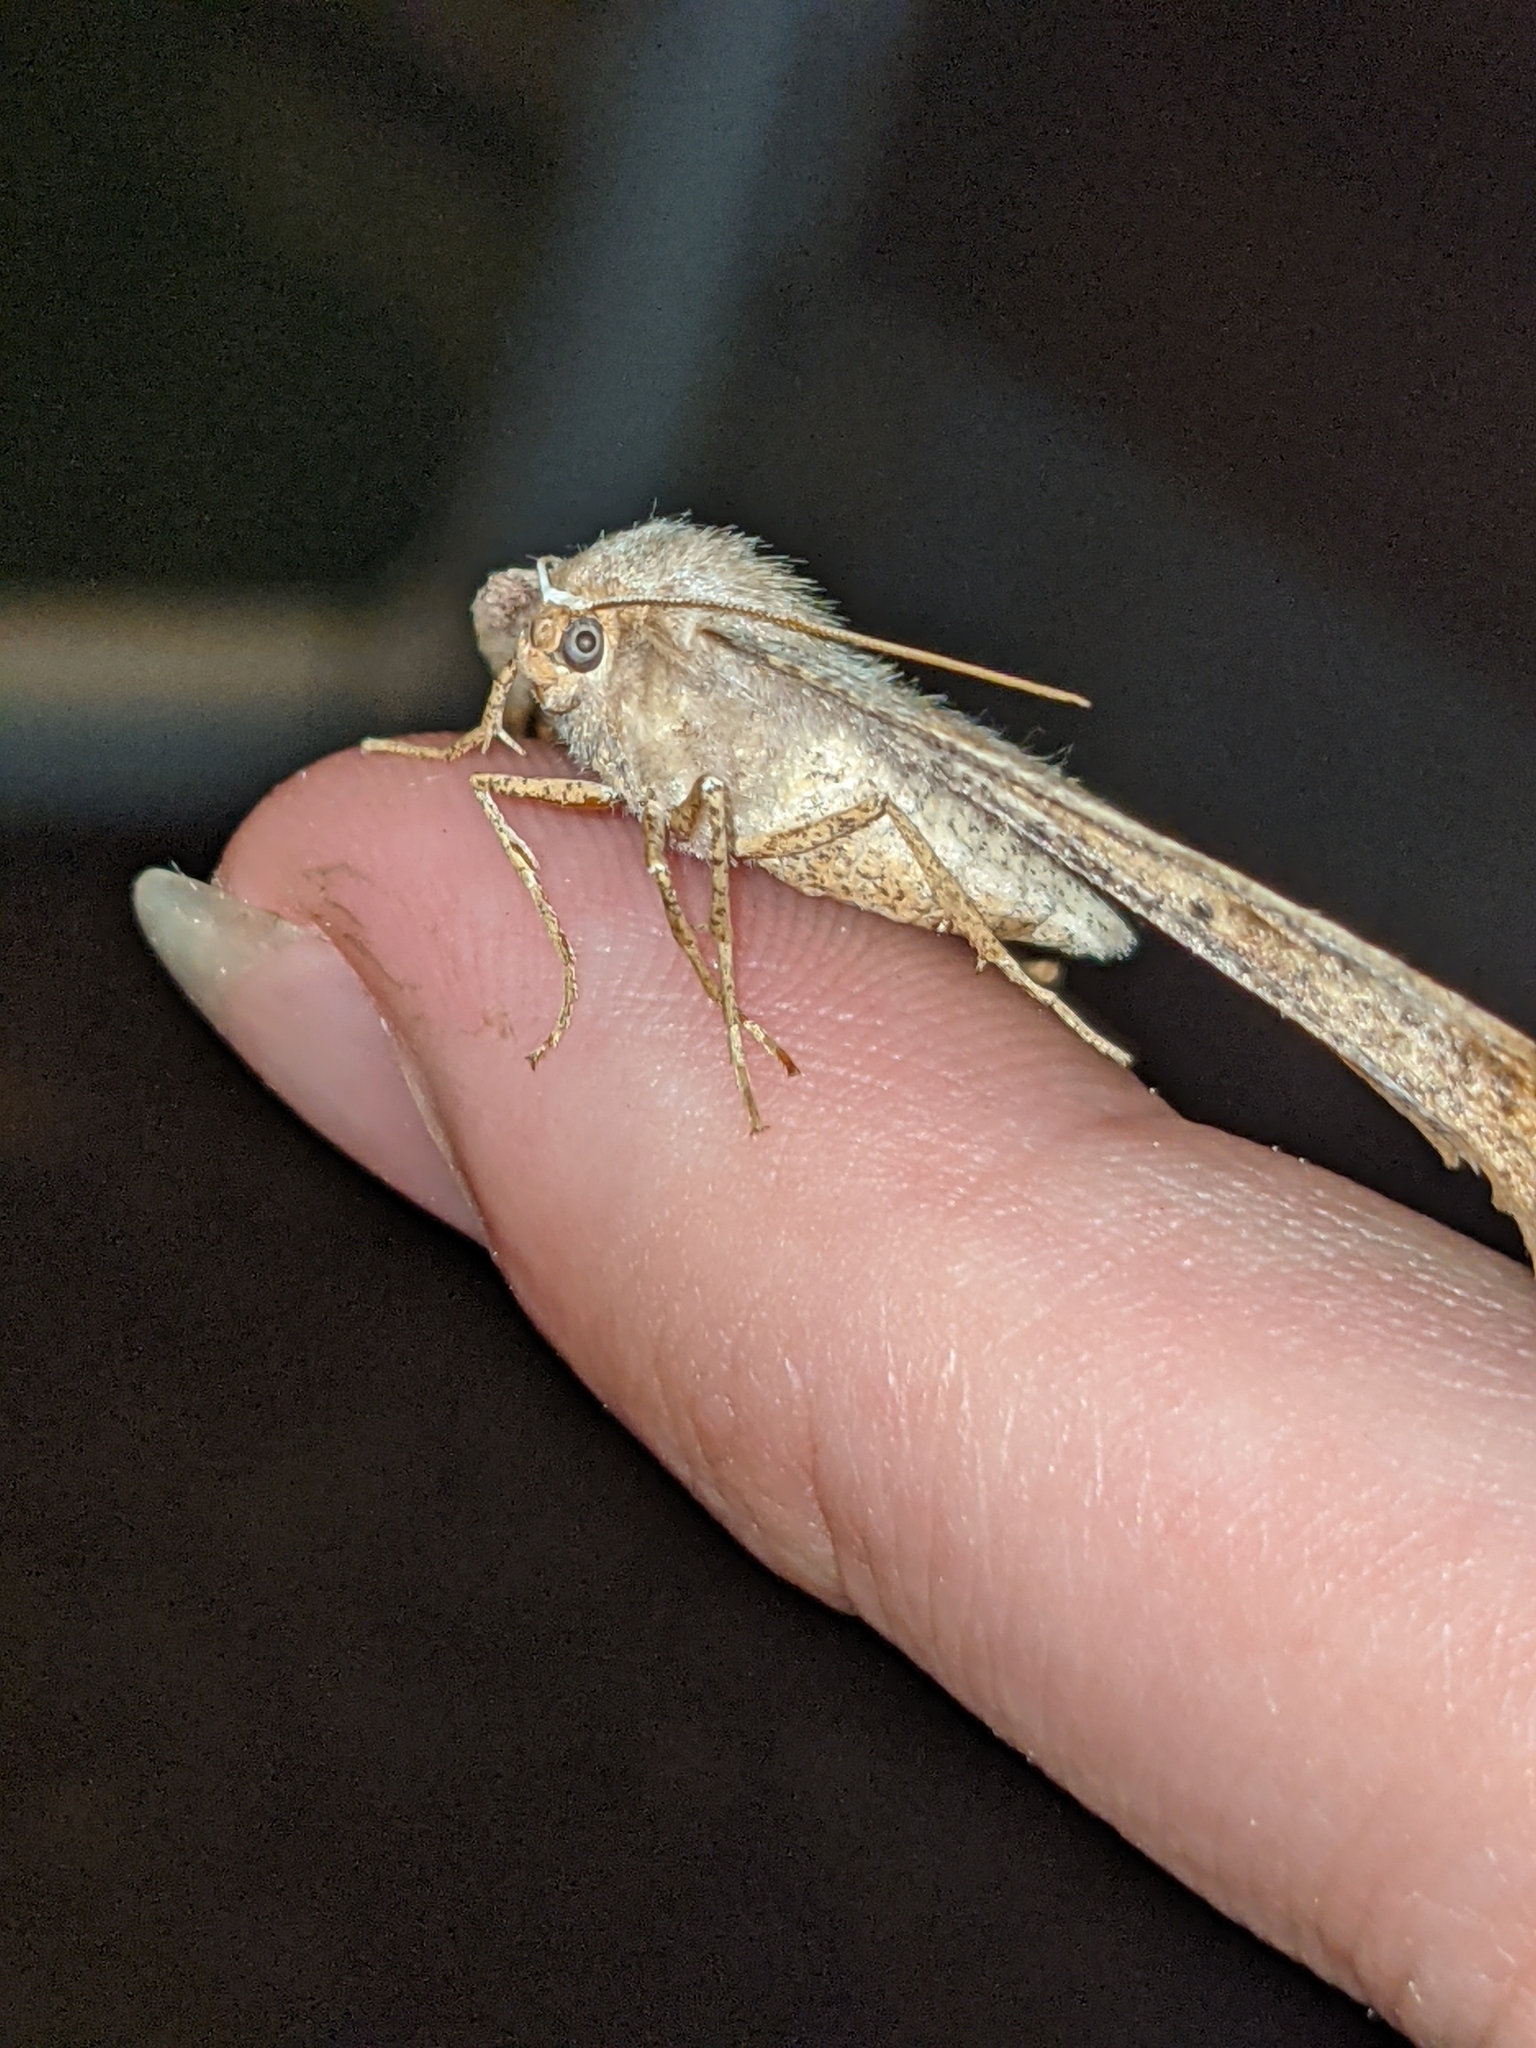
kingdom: Animalia
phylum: Arthropoda
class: Insecta
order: Lepidoptera
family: Geometridae
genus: Eutrapela
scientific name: Eutrapela clemataria
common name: Curved-toothed geometer
